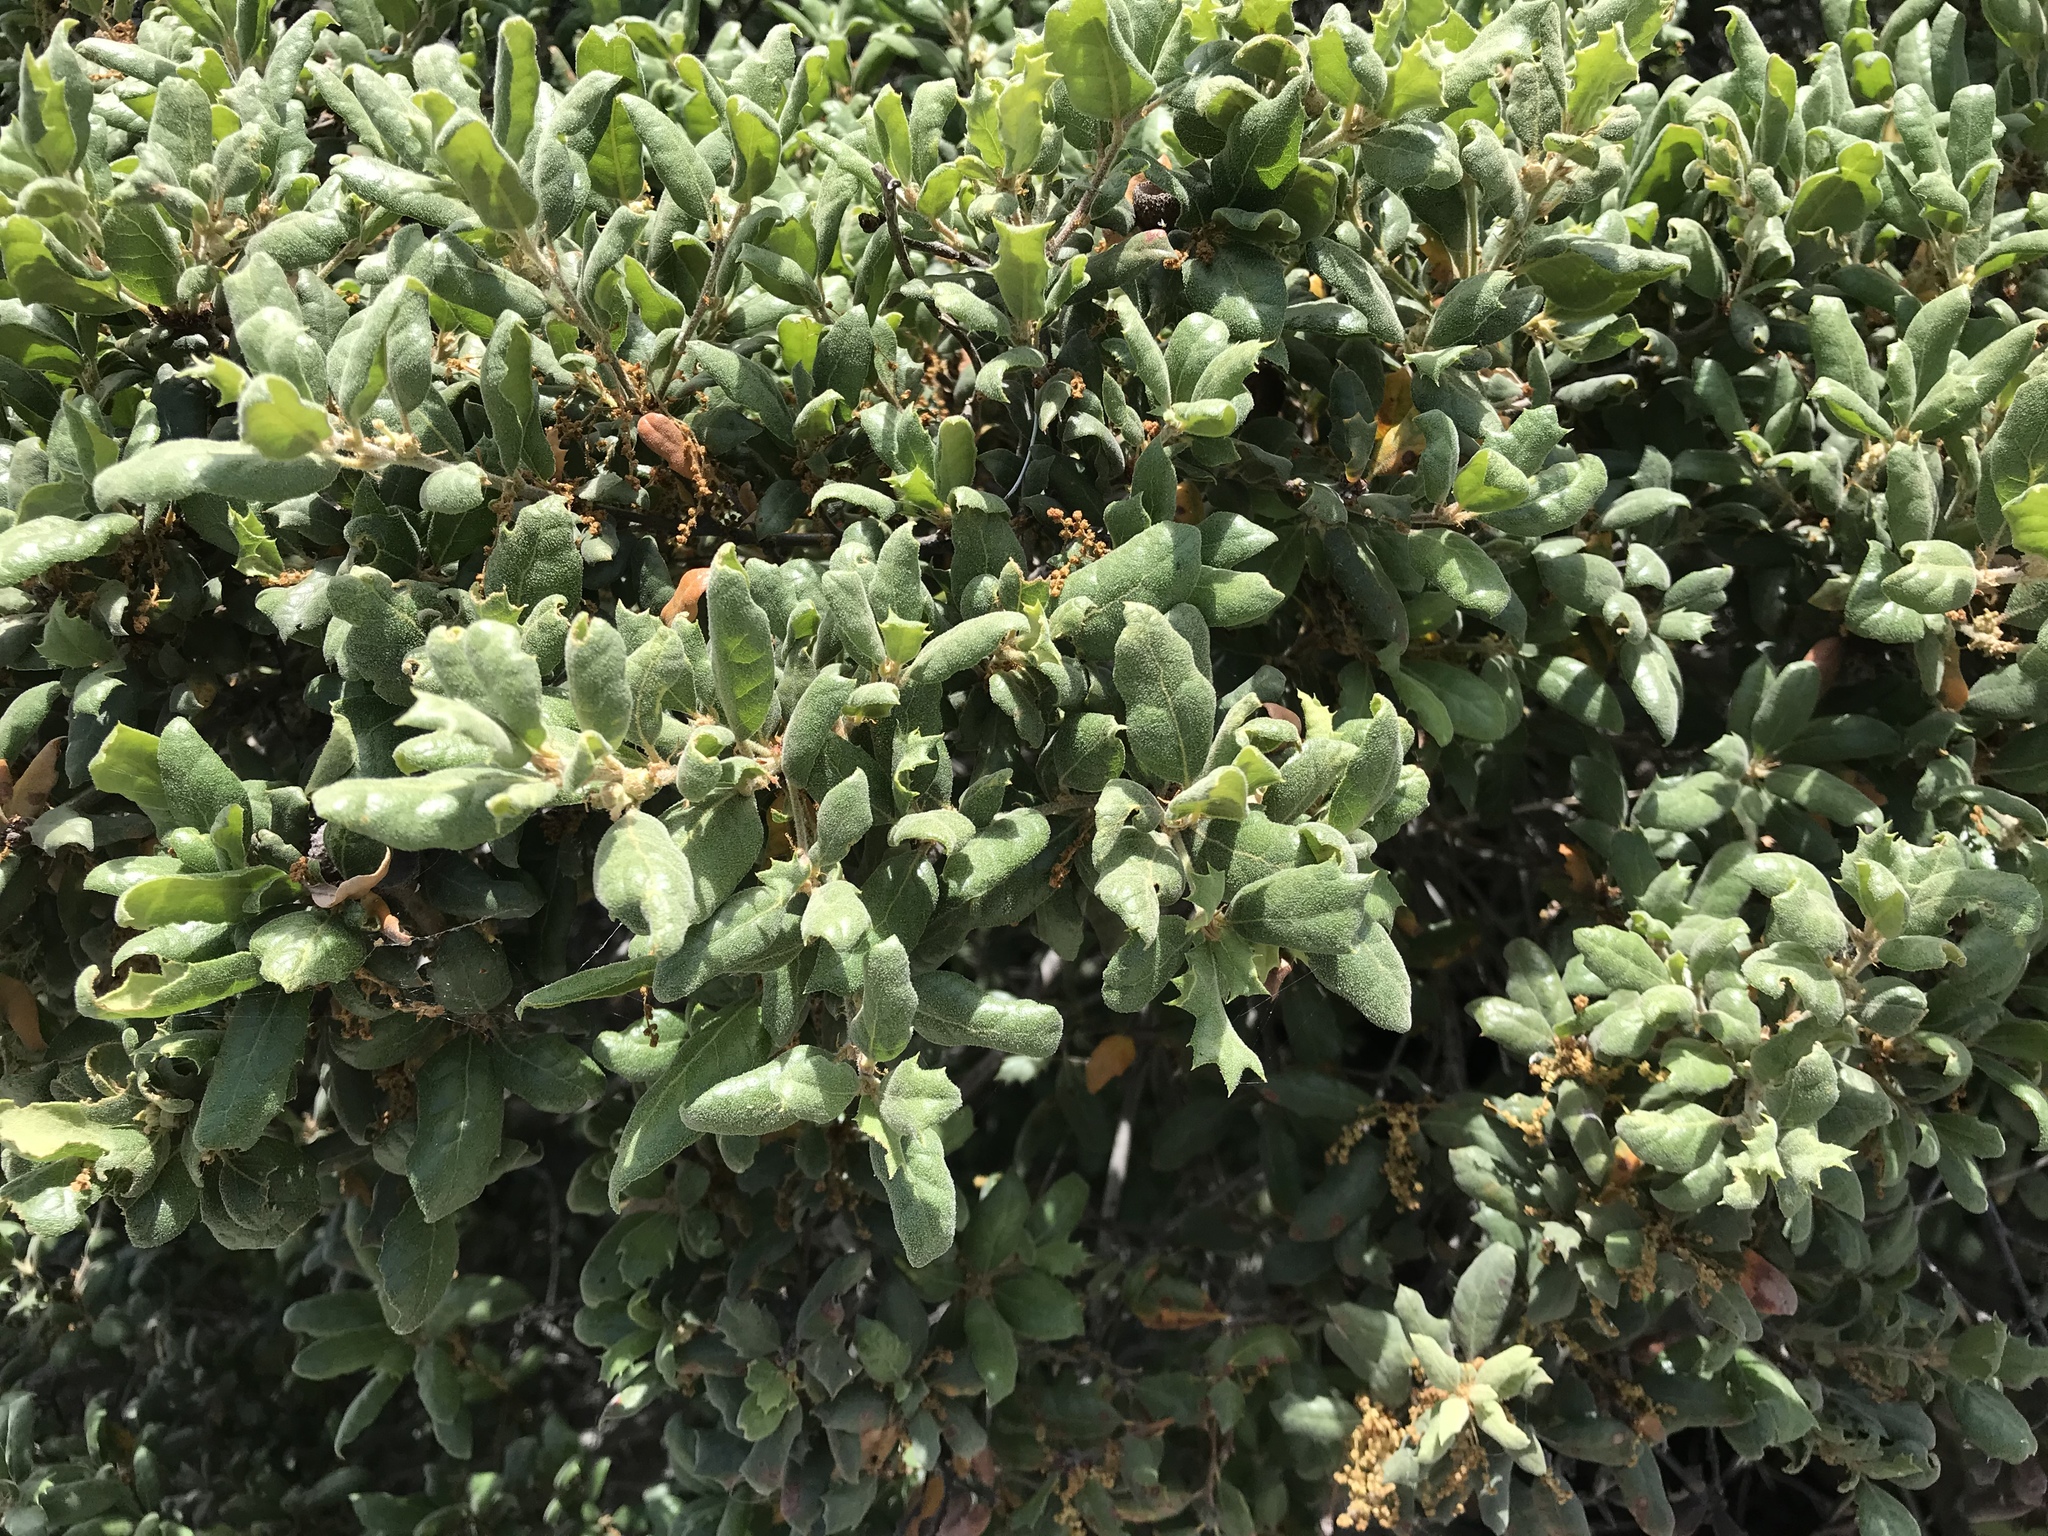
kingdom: Plantae
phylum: Tracheophyta
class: Magnoliopsida
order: Fagales
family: Fagaceae
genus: Quercus
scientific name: Quercus durata
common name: Leather oak
